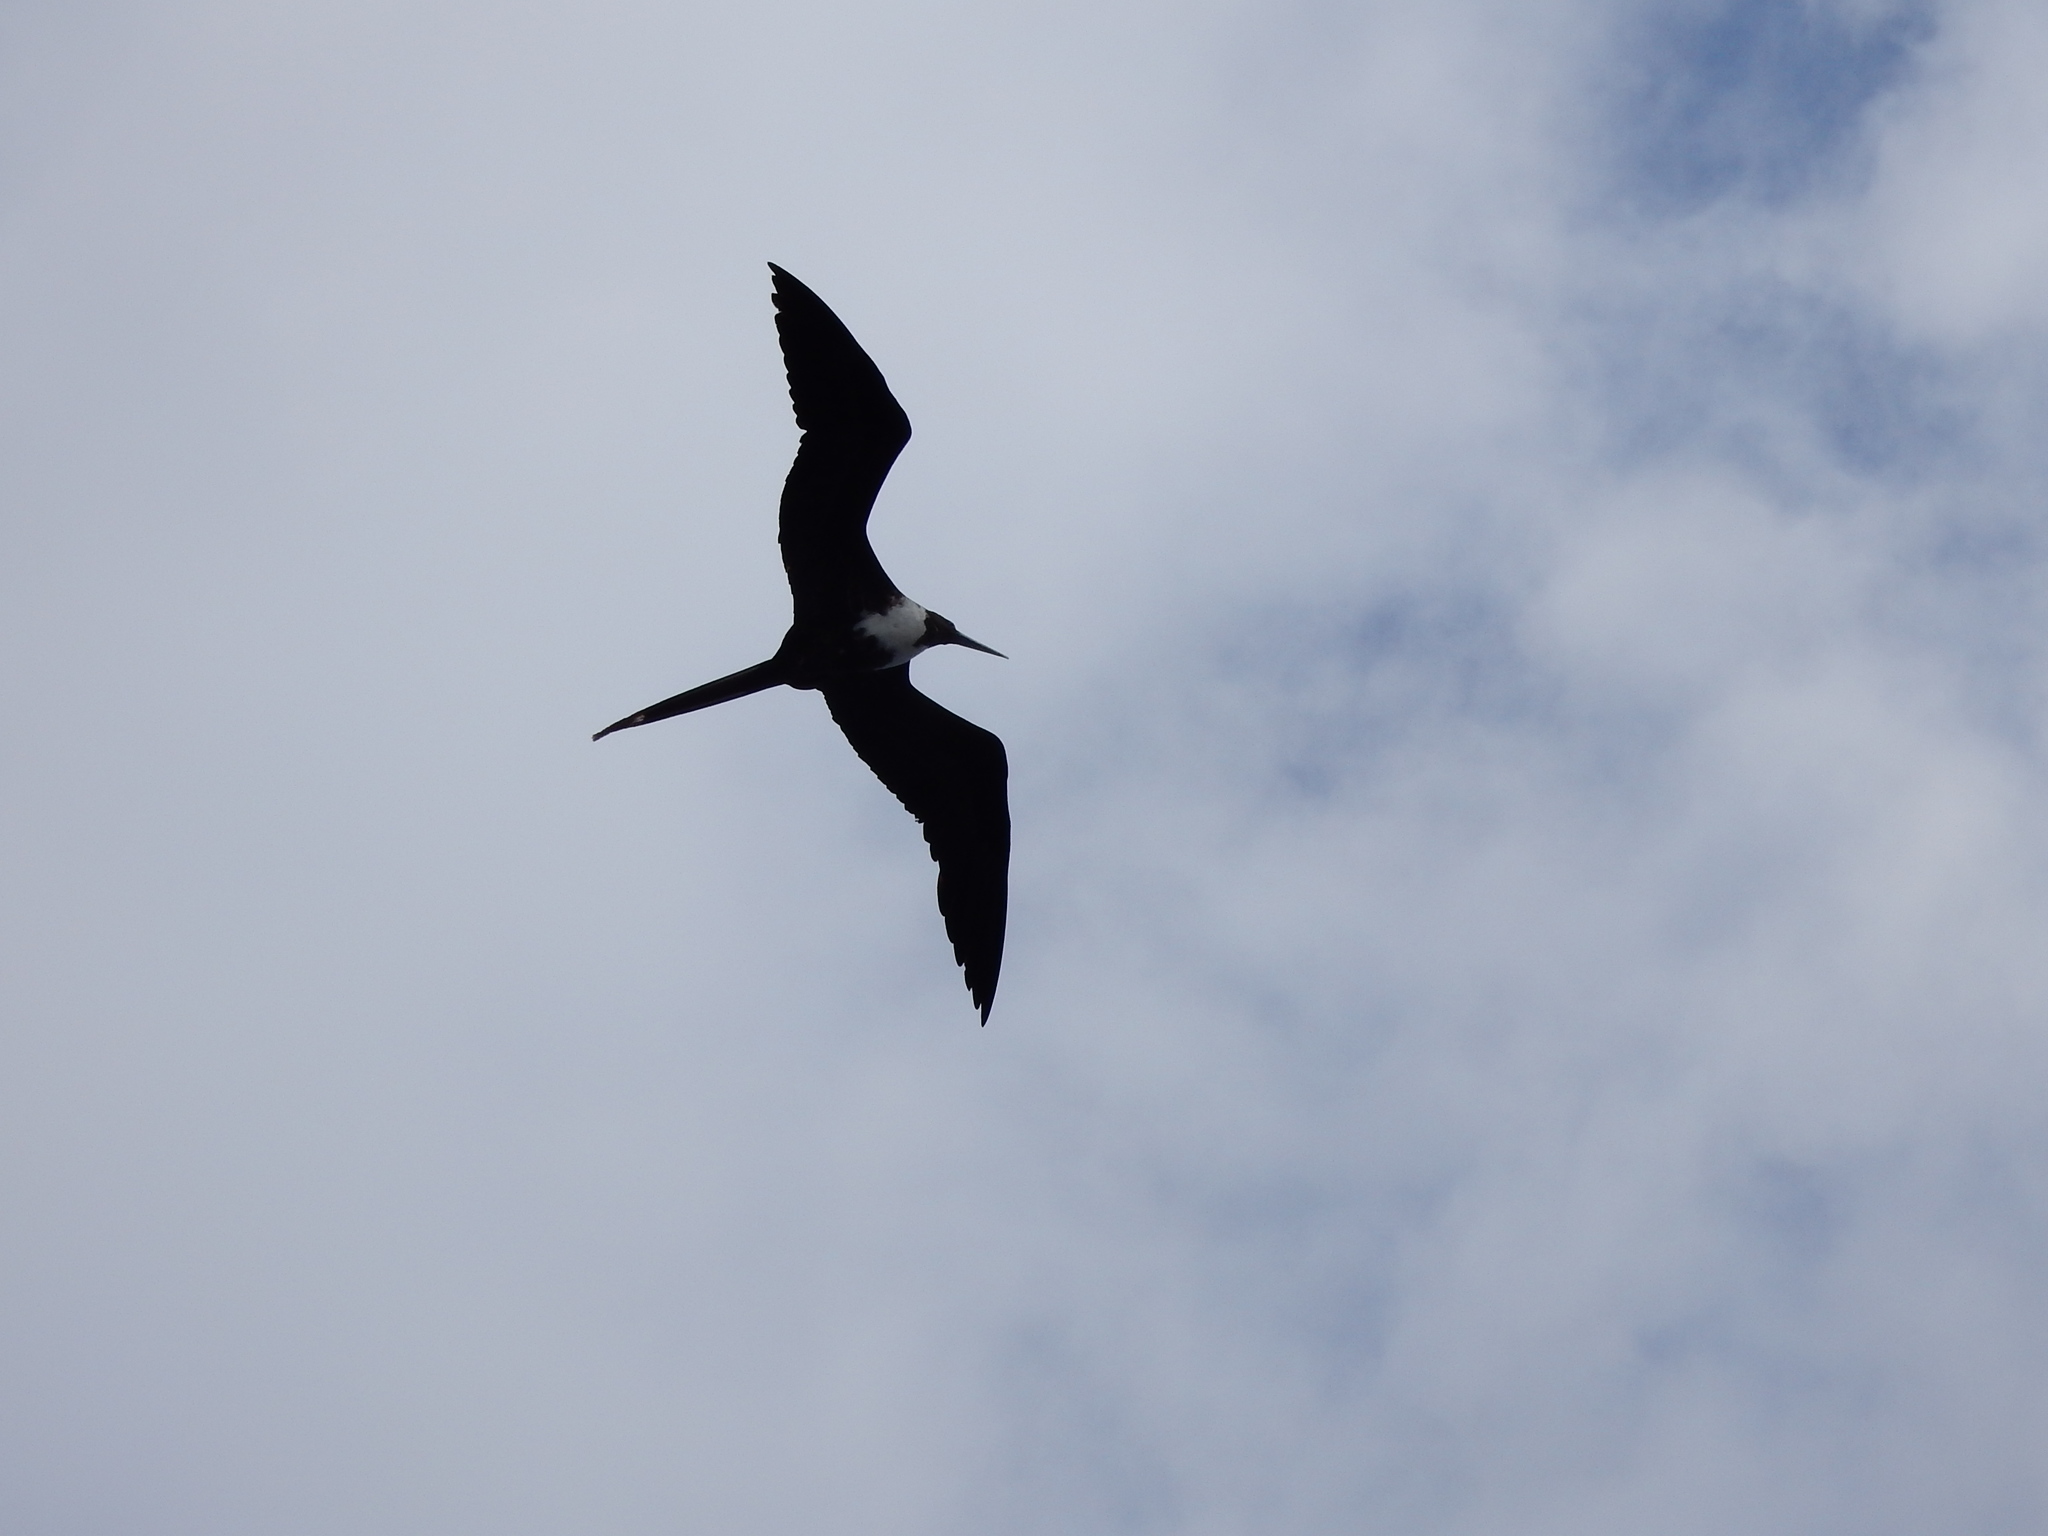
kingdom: Animalia
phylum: Chordata
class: Aves
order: Suliformes
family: Fregatidae
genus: Fregata
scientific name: Fregata magnificens
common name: Magnificent frigatebird
